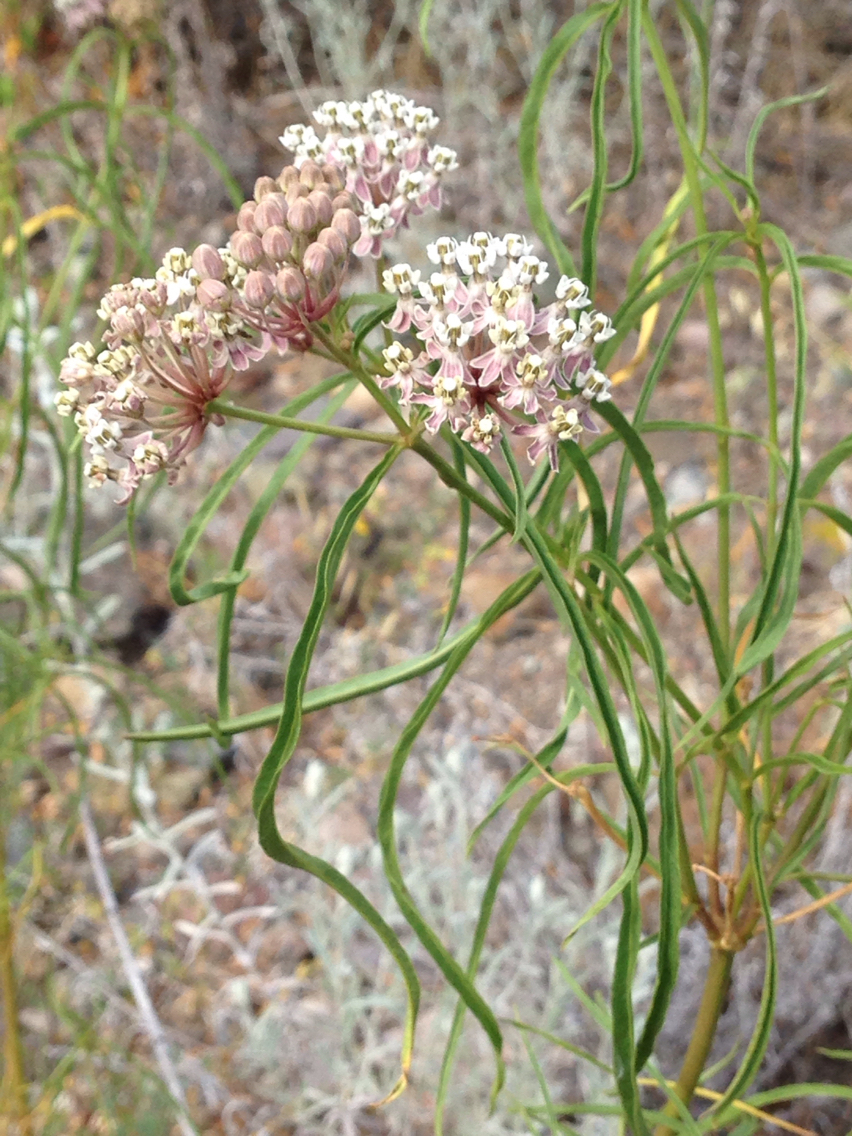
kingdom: Plantae
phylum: Tracheophyta
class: Magnoliopsida
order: Gentianales
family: Apocynaceae
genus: Asclepias
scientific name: Asclepias fascicularis
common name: Mexican milkweed
